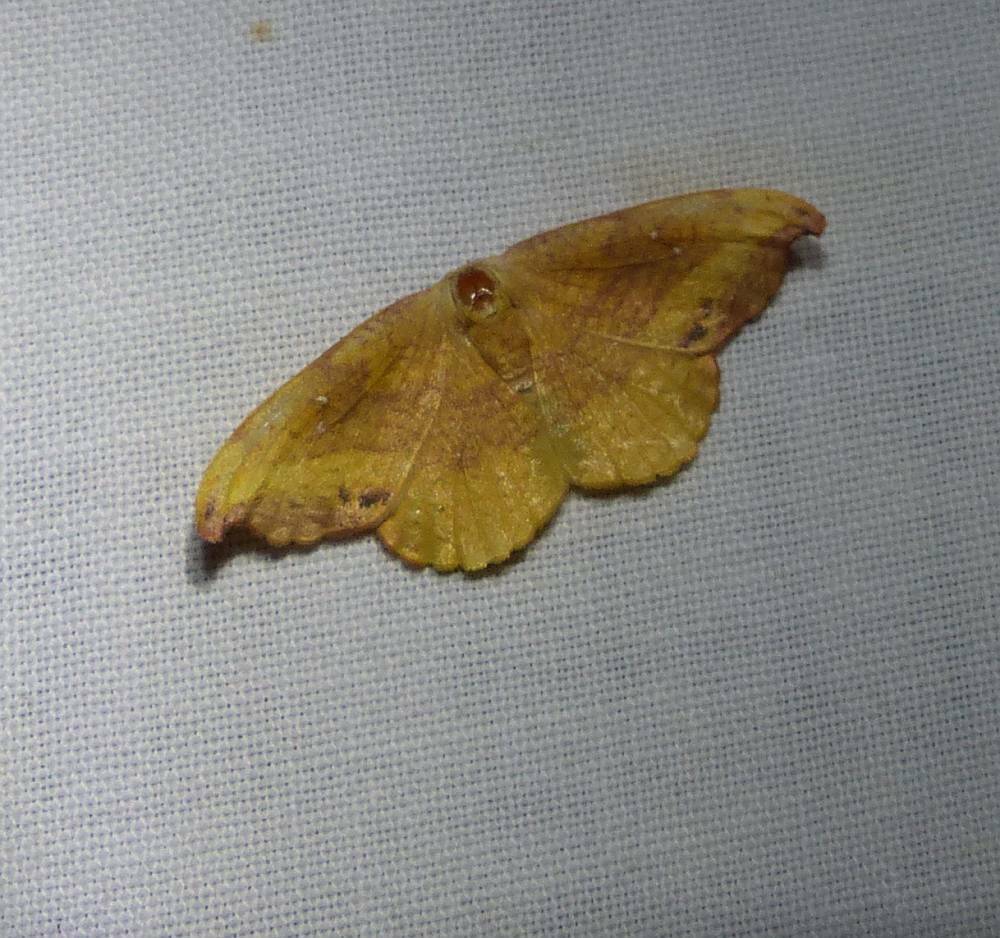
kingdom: Animalia
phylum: Arthropoda
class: Insecta
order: Lepidoptera
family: Drepanidae
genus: Oreta
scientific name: Oreta rosea
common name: Rose hooktip
